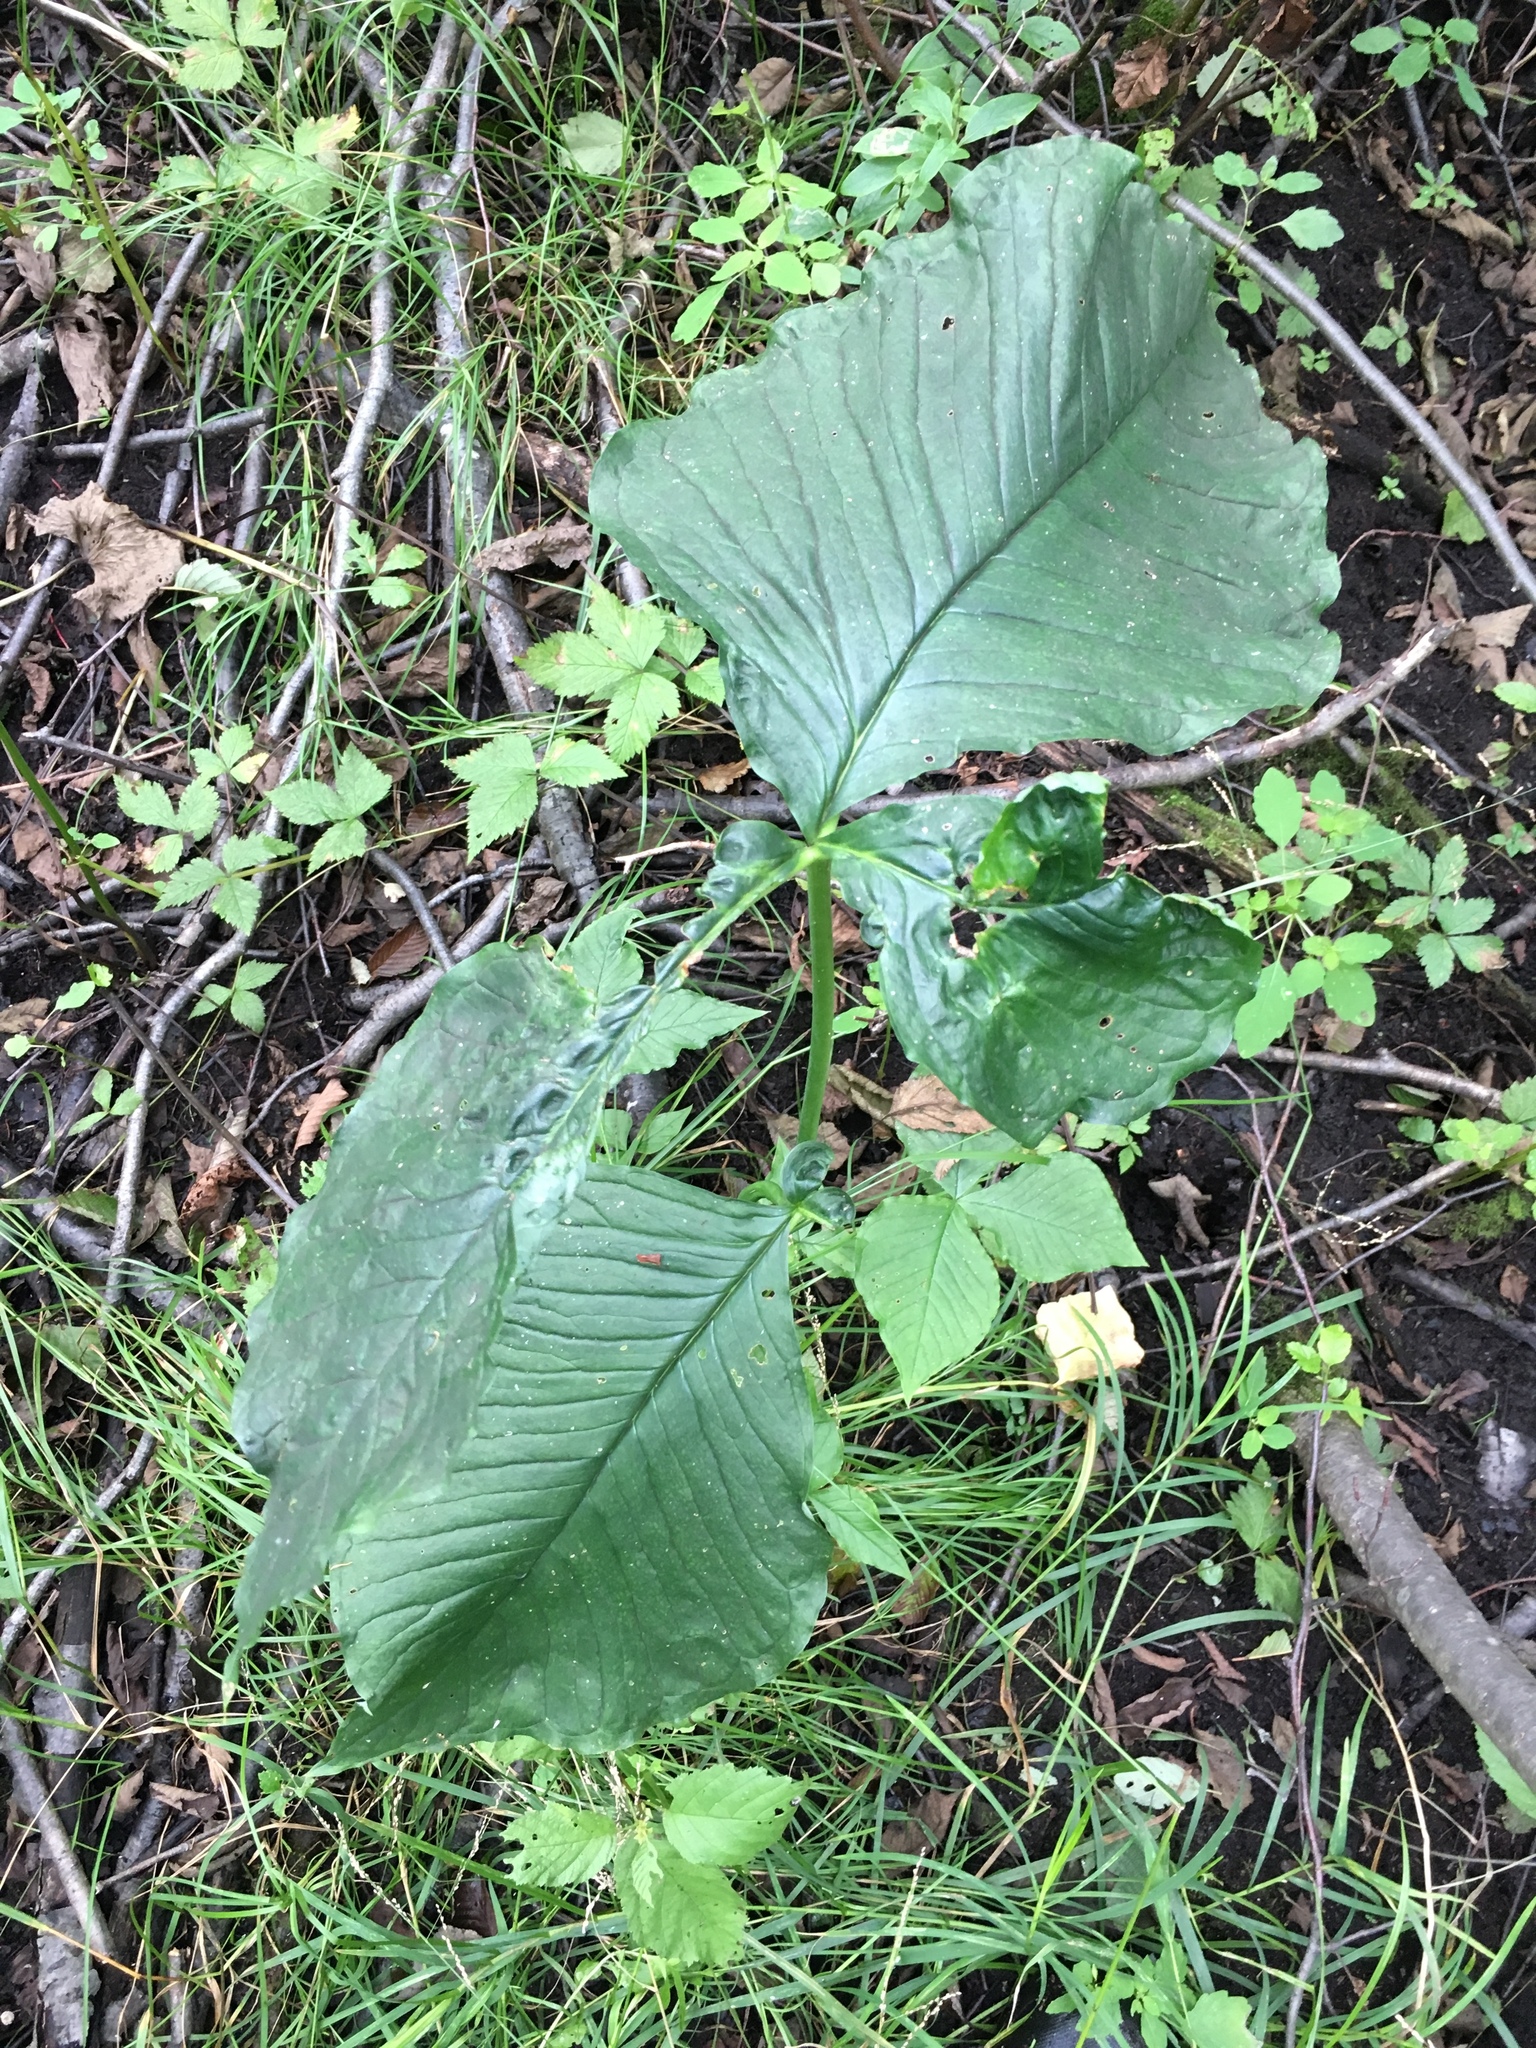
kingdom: Plantae
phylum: Tracheophyta
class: Liliopsida
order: Alismatales
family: Araceae
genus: Arisaema
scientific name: Arisaema triphyllum
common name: Jack-in-the-pulpit
